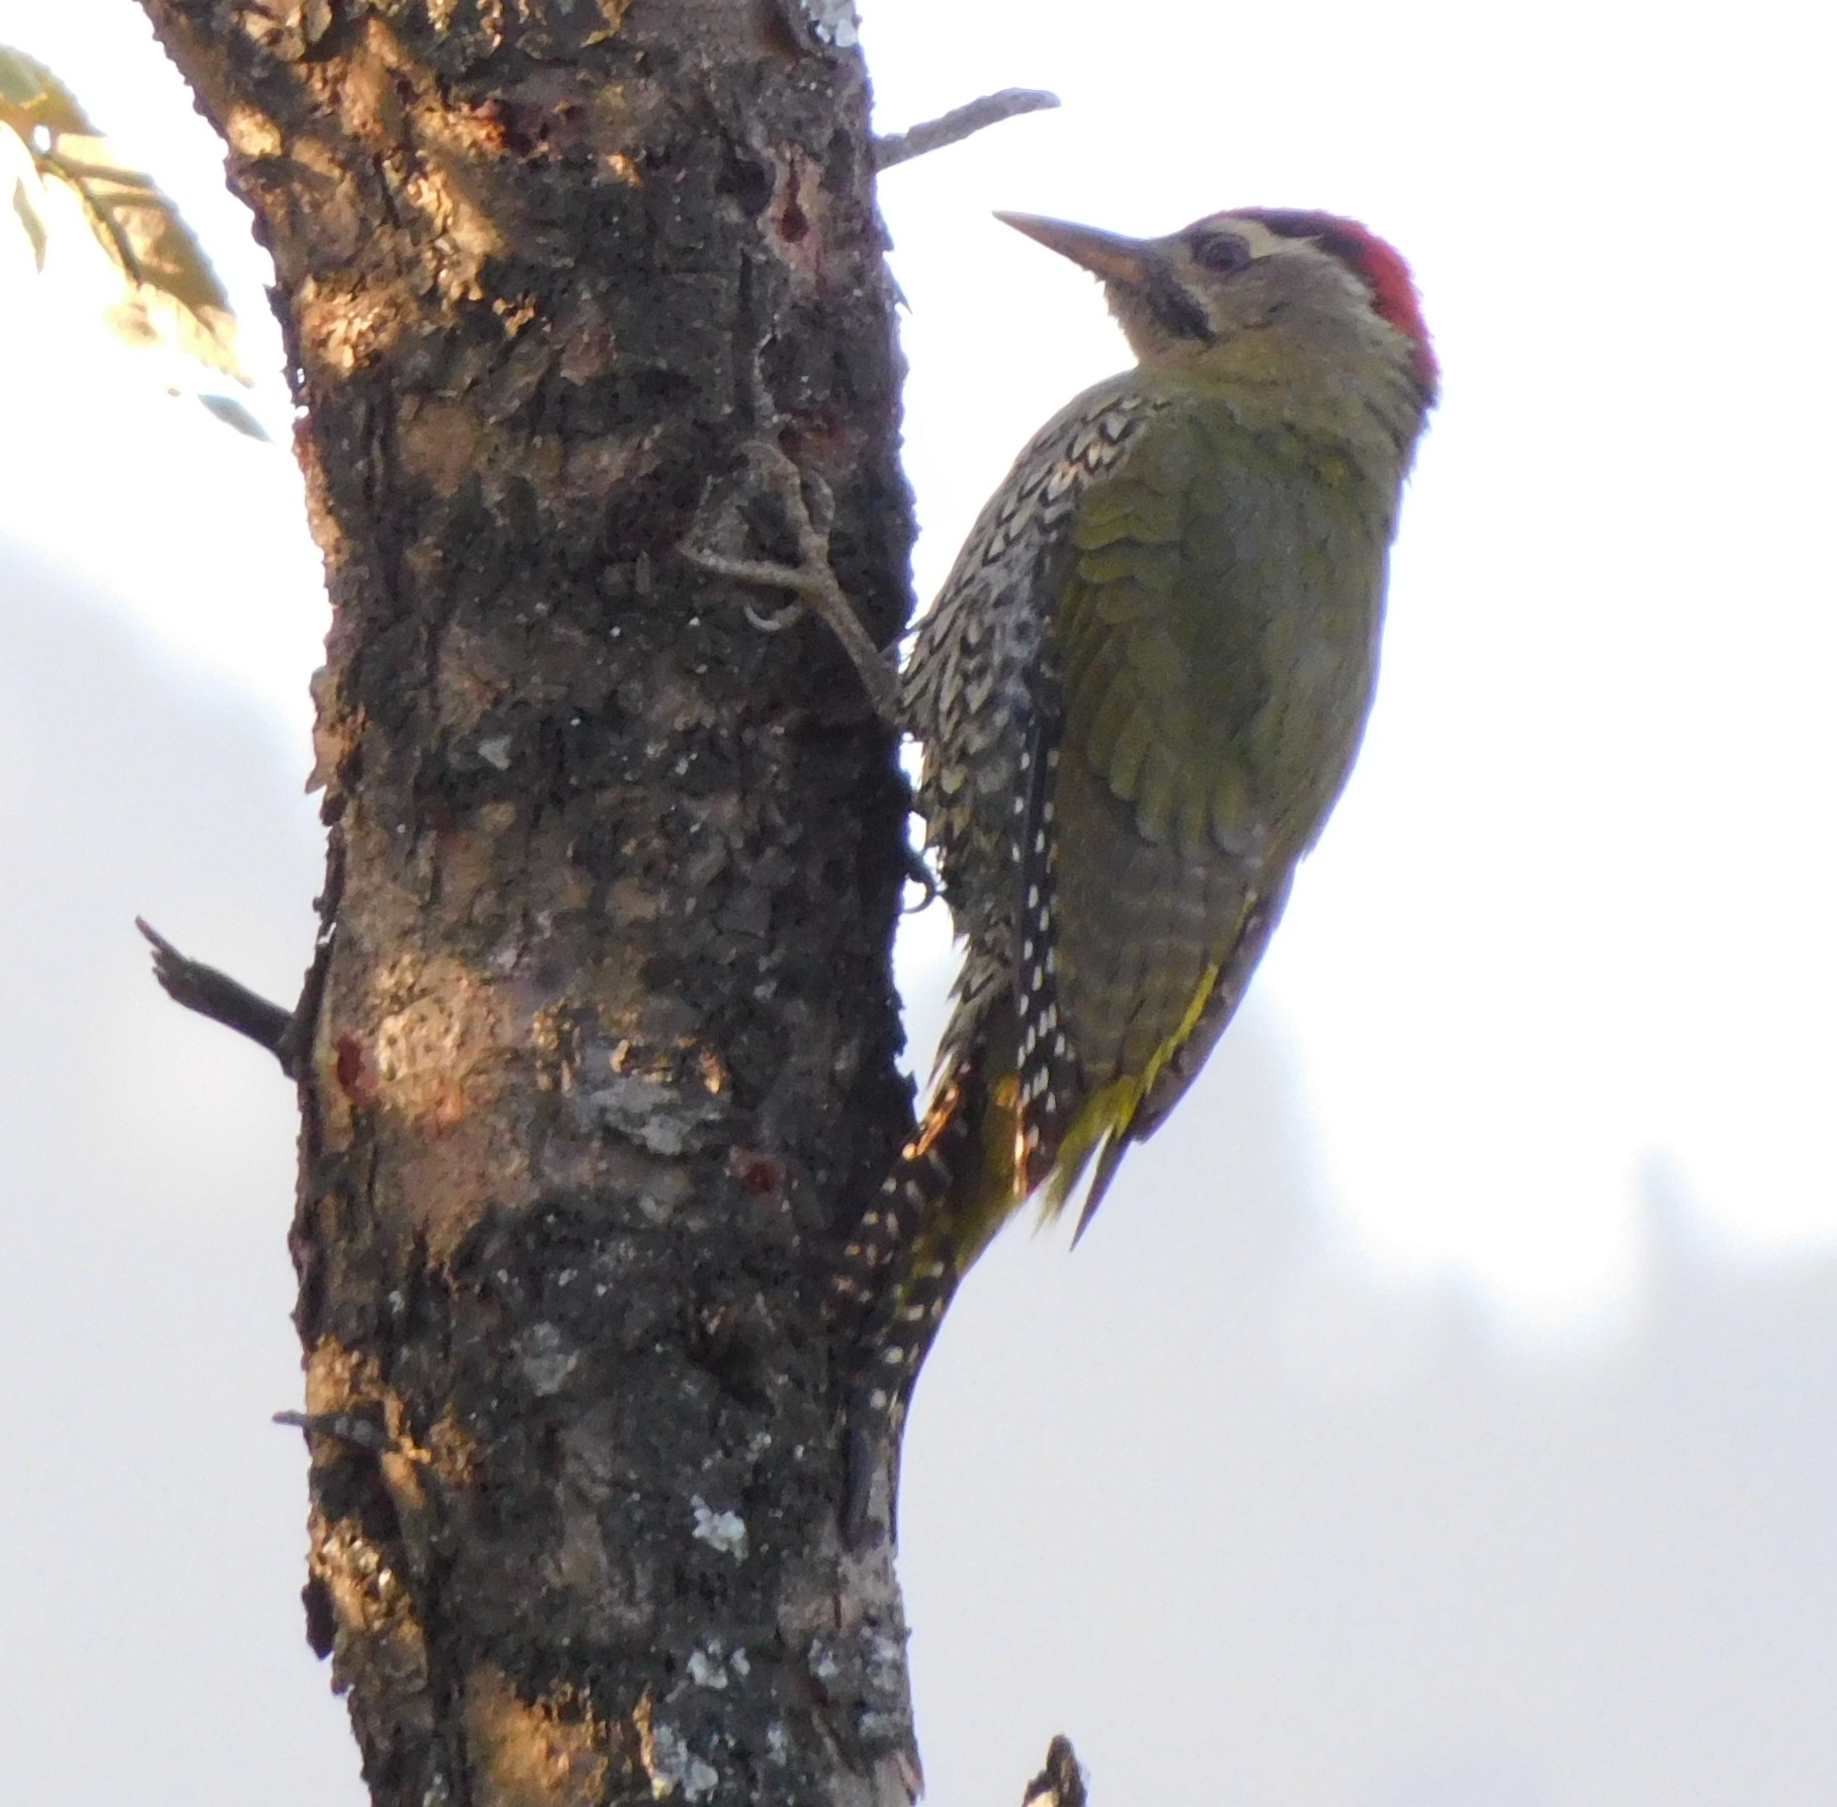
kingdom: Animalia
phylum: Chordata
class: Aves
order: Piciformes
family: Picidae
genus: Picus
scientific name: Picus squamatus
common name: Scaly-bellied woodpecker
